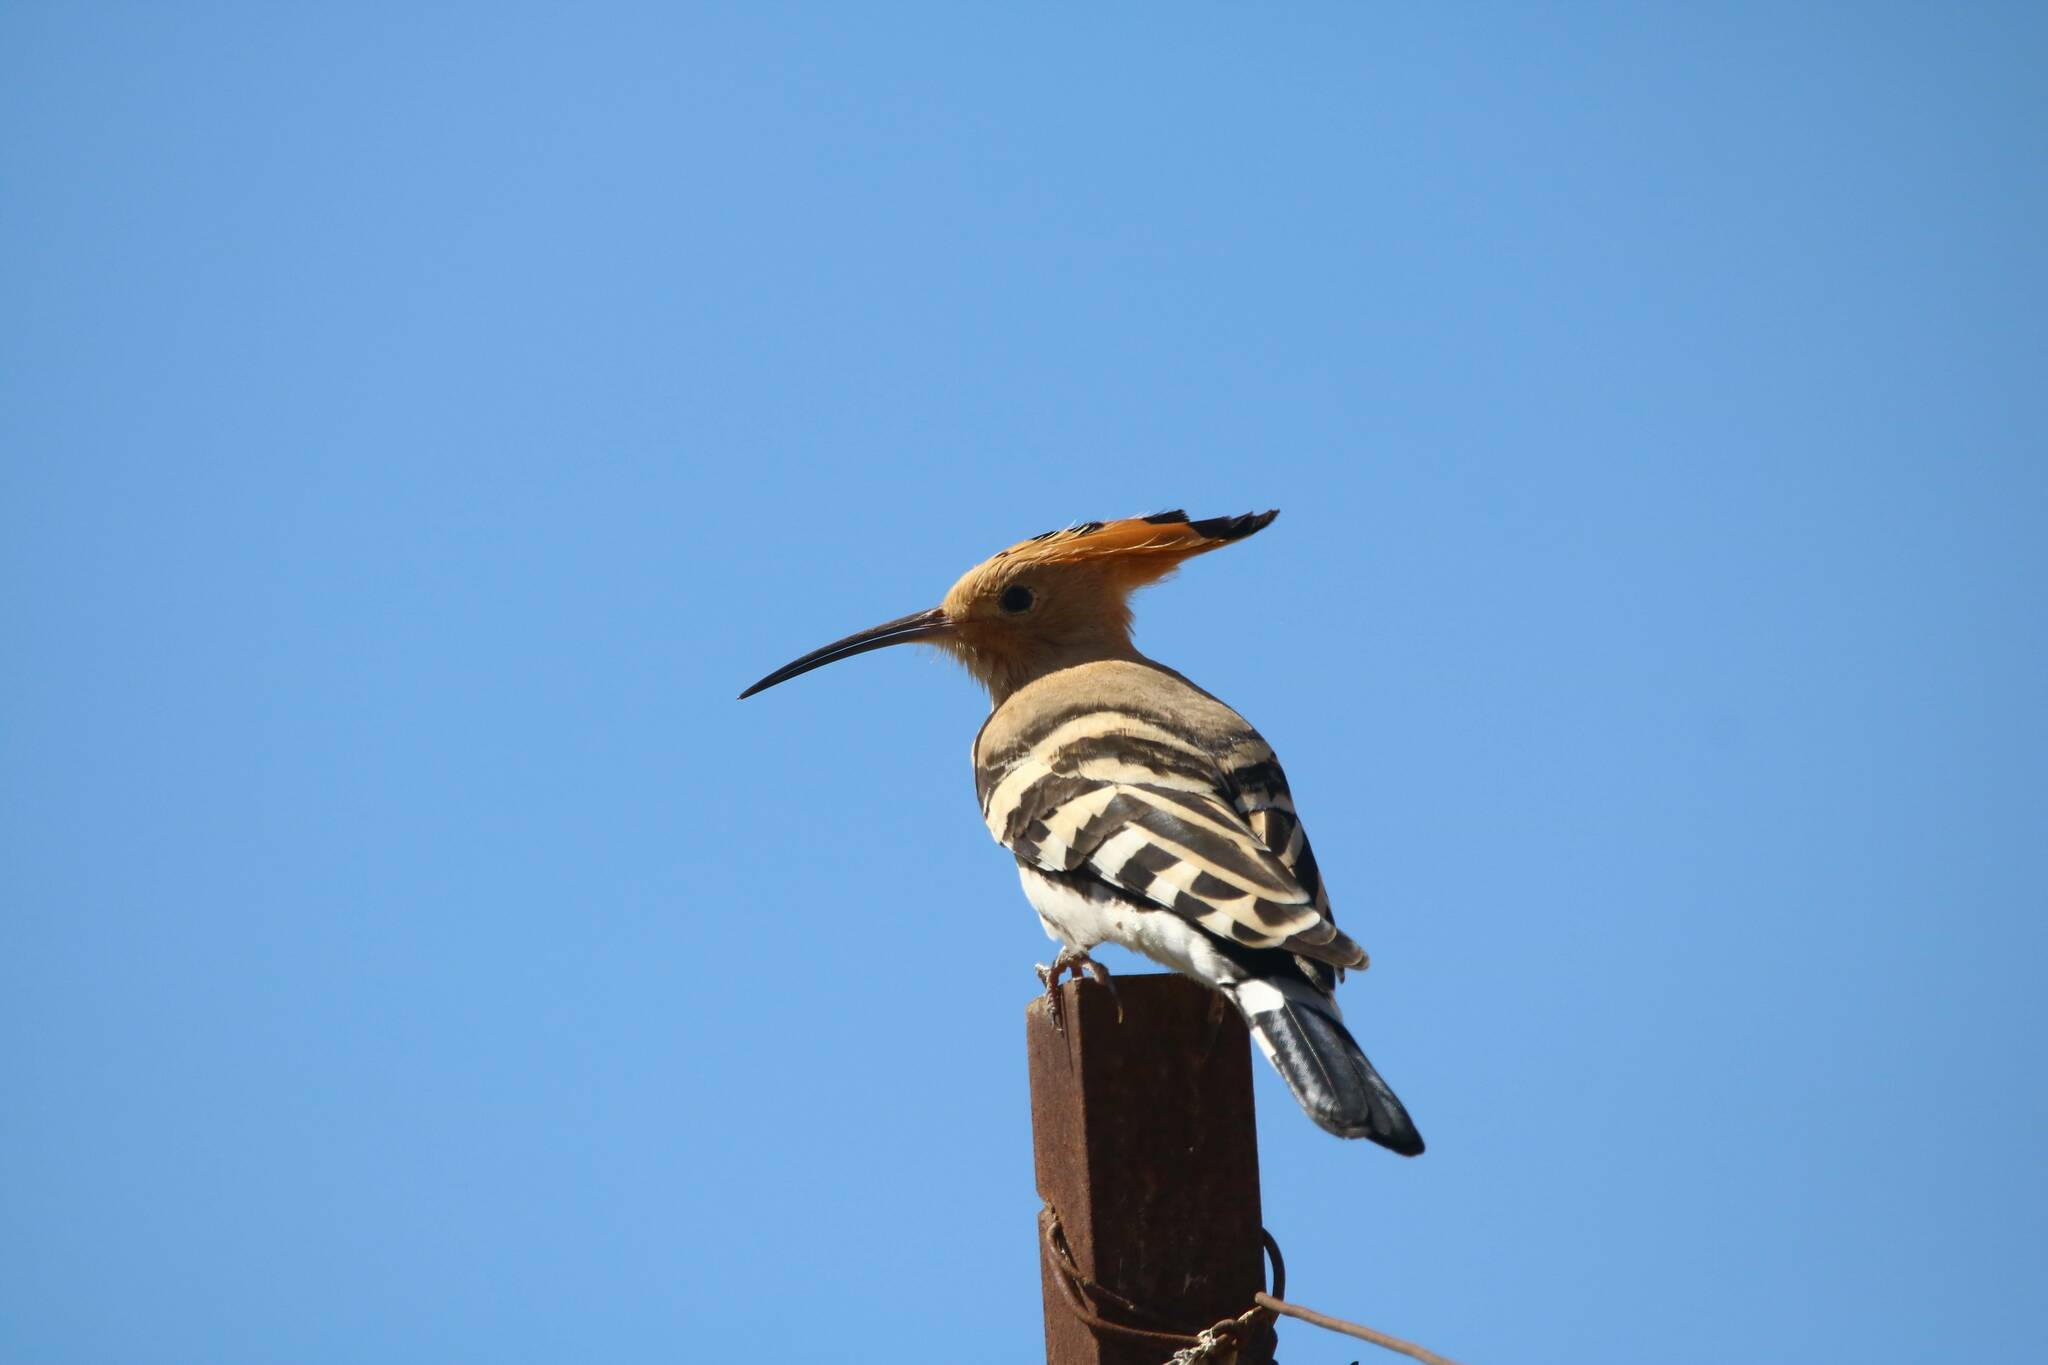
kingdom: Animalia
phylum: Chordata
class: Aves
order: Bucerotiformes
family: Upupidae
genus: Upupa
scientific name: Upupa epops
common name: Eurasian hoopoe
